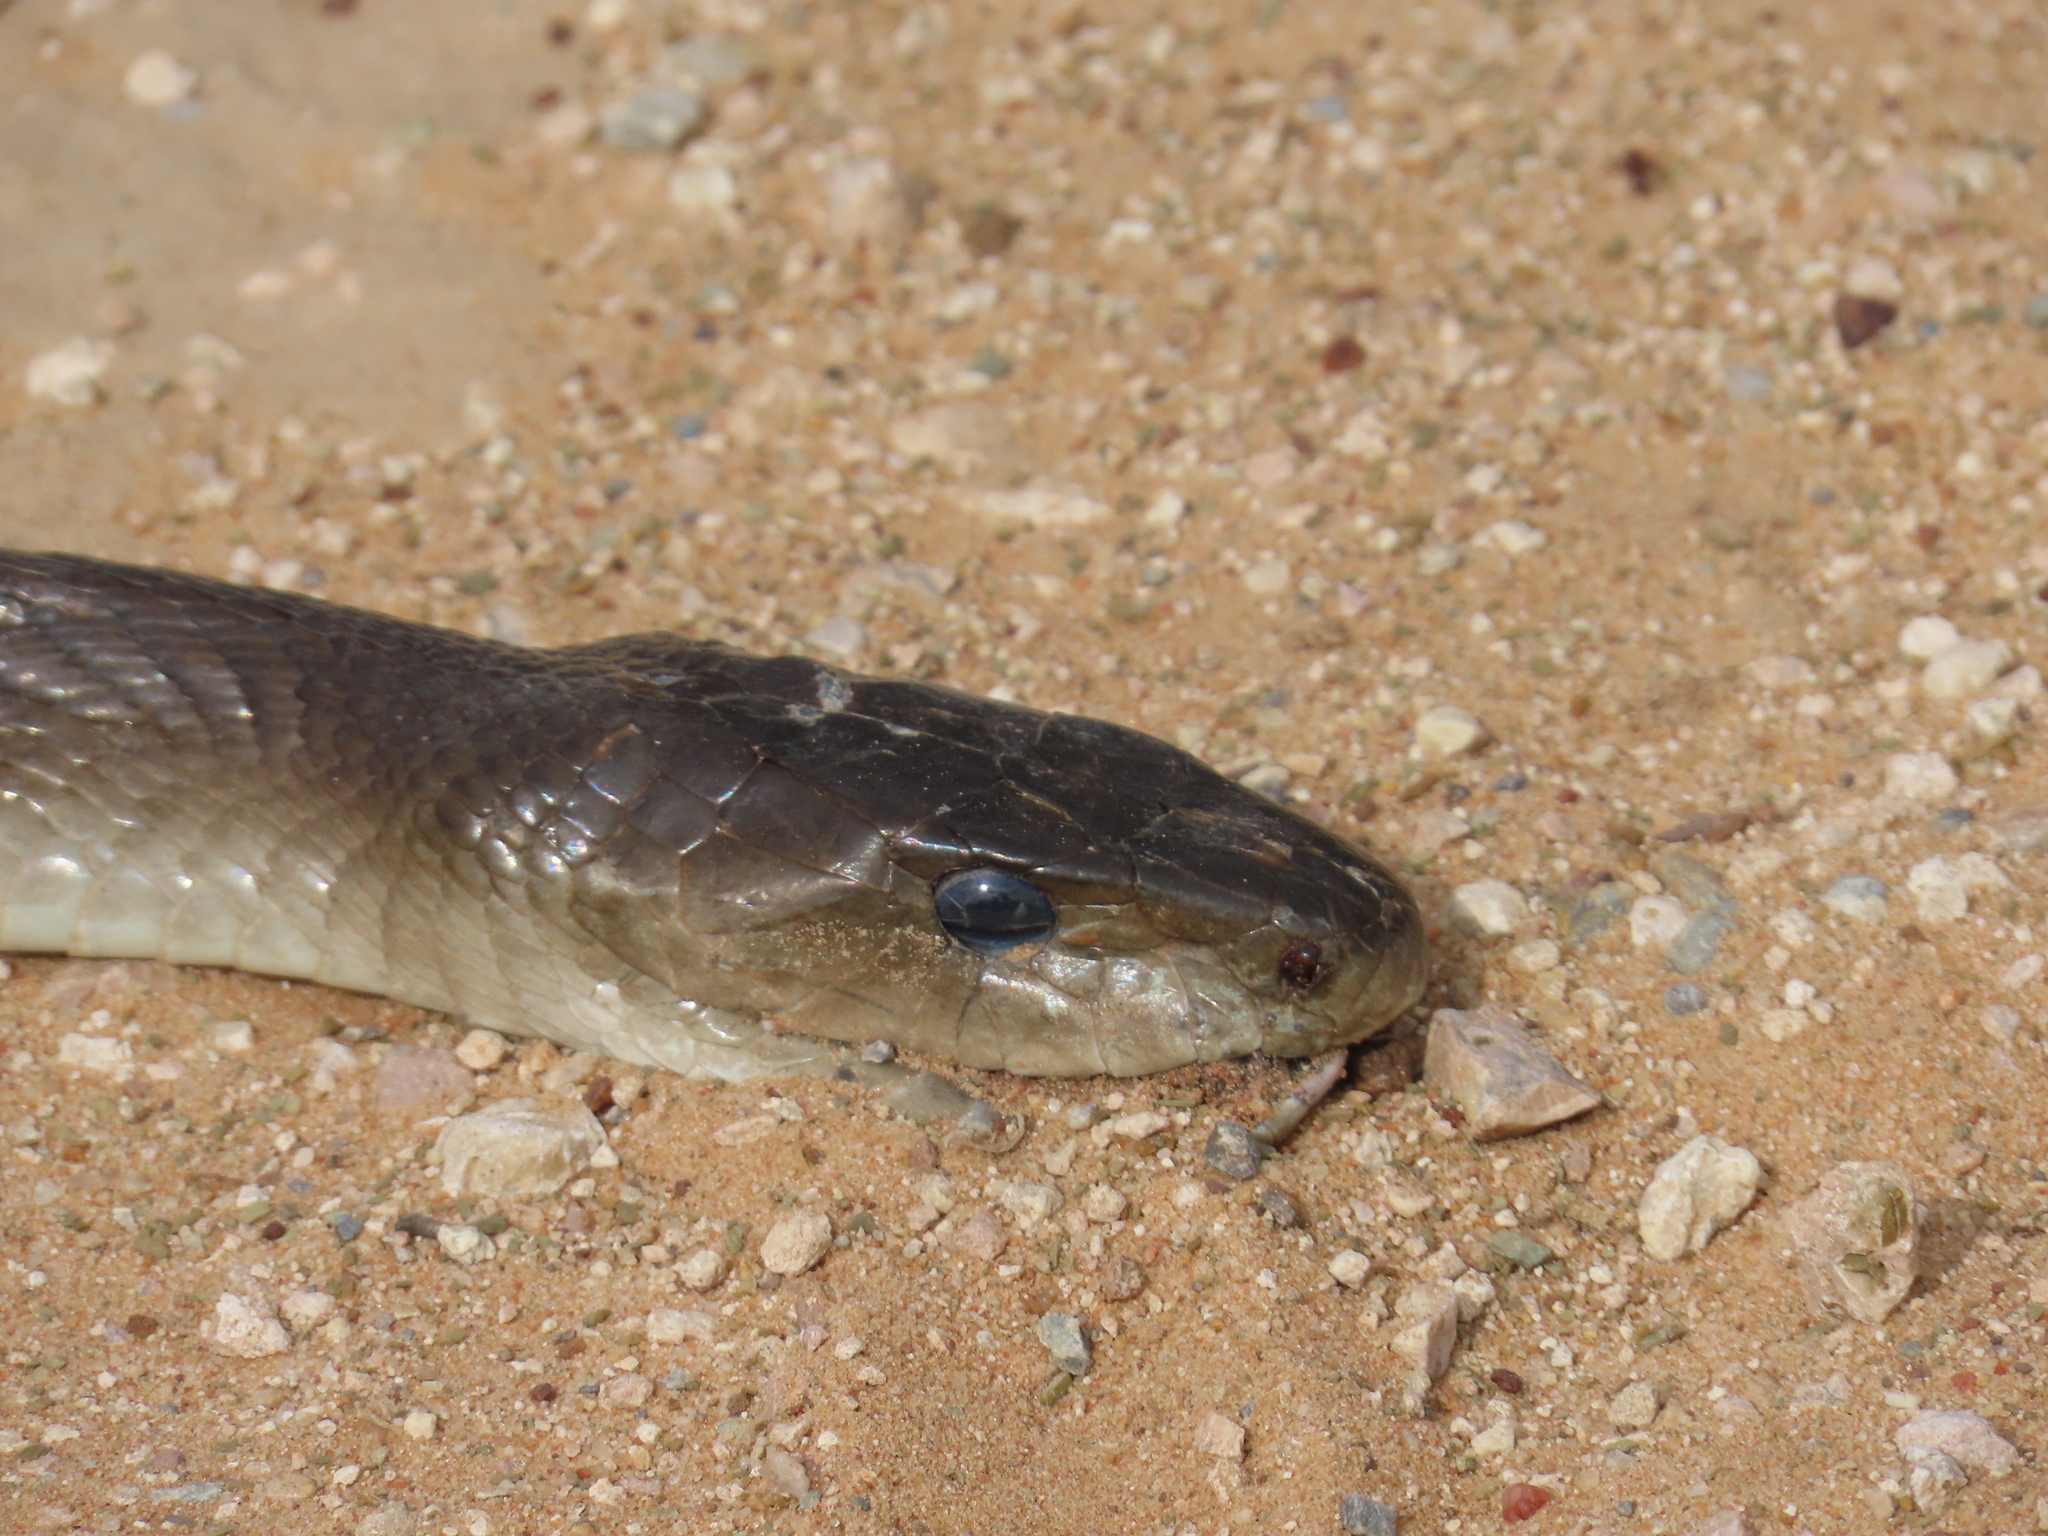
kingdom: Animalia
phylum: Chordata
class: Squamata
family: Elapidae
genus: Dendroaspis
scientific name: Dendroaspis polylepis
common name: Black mamba
